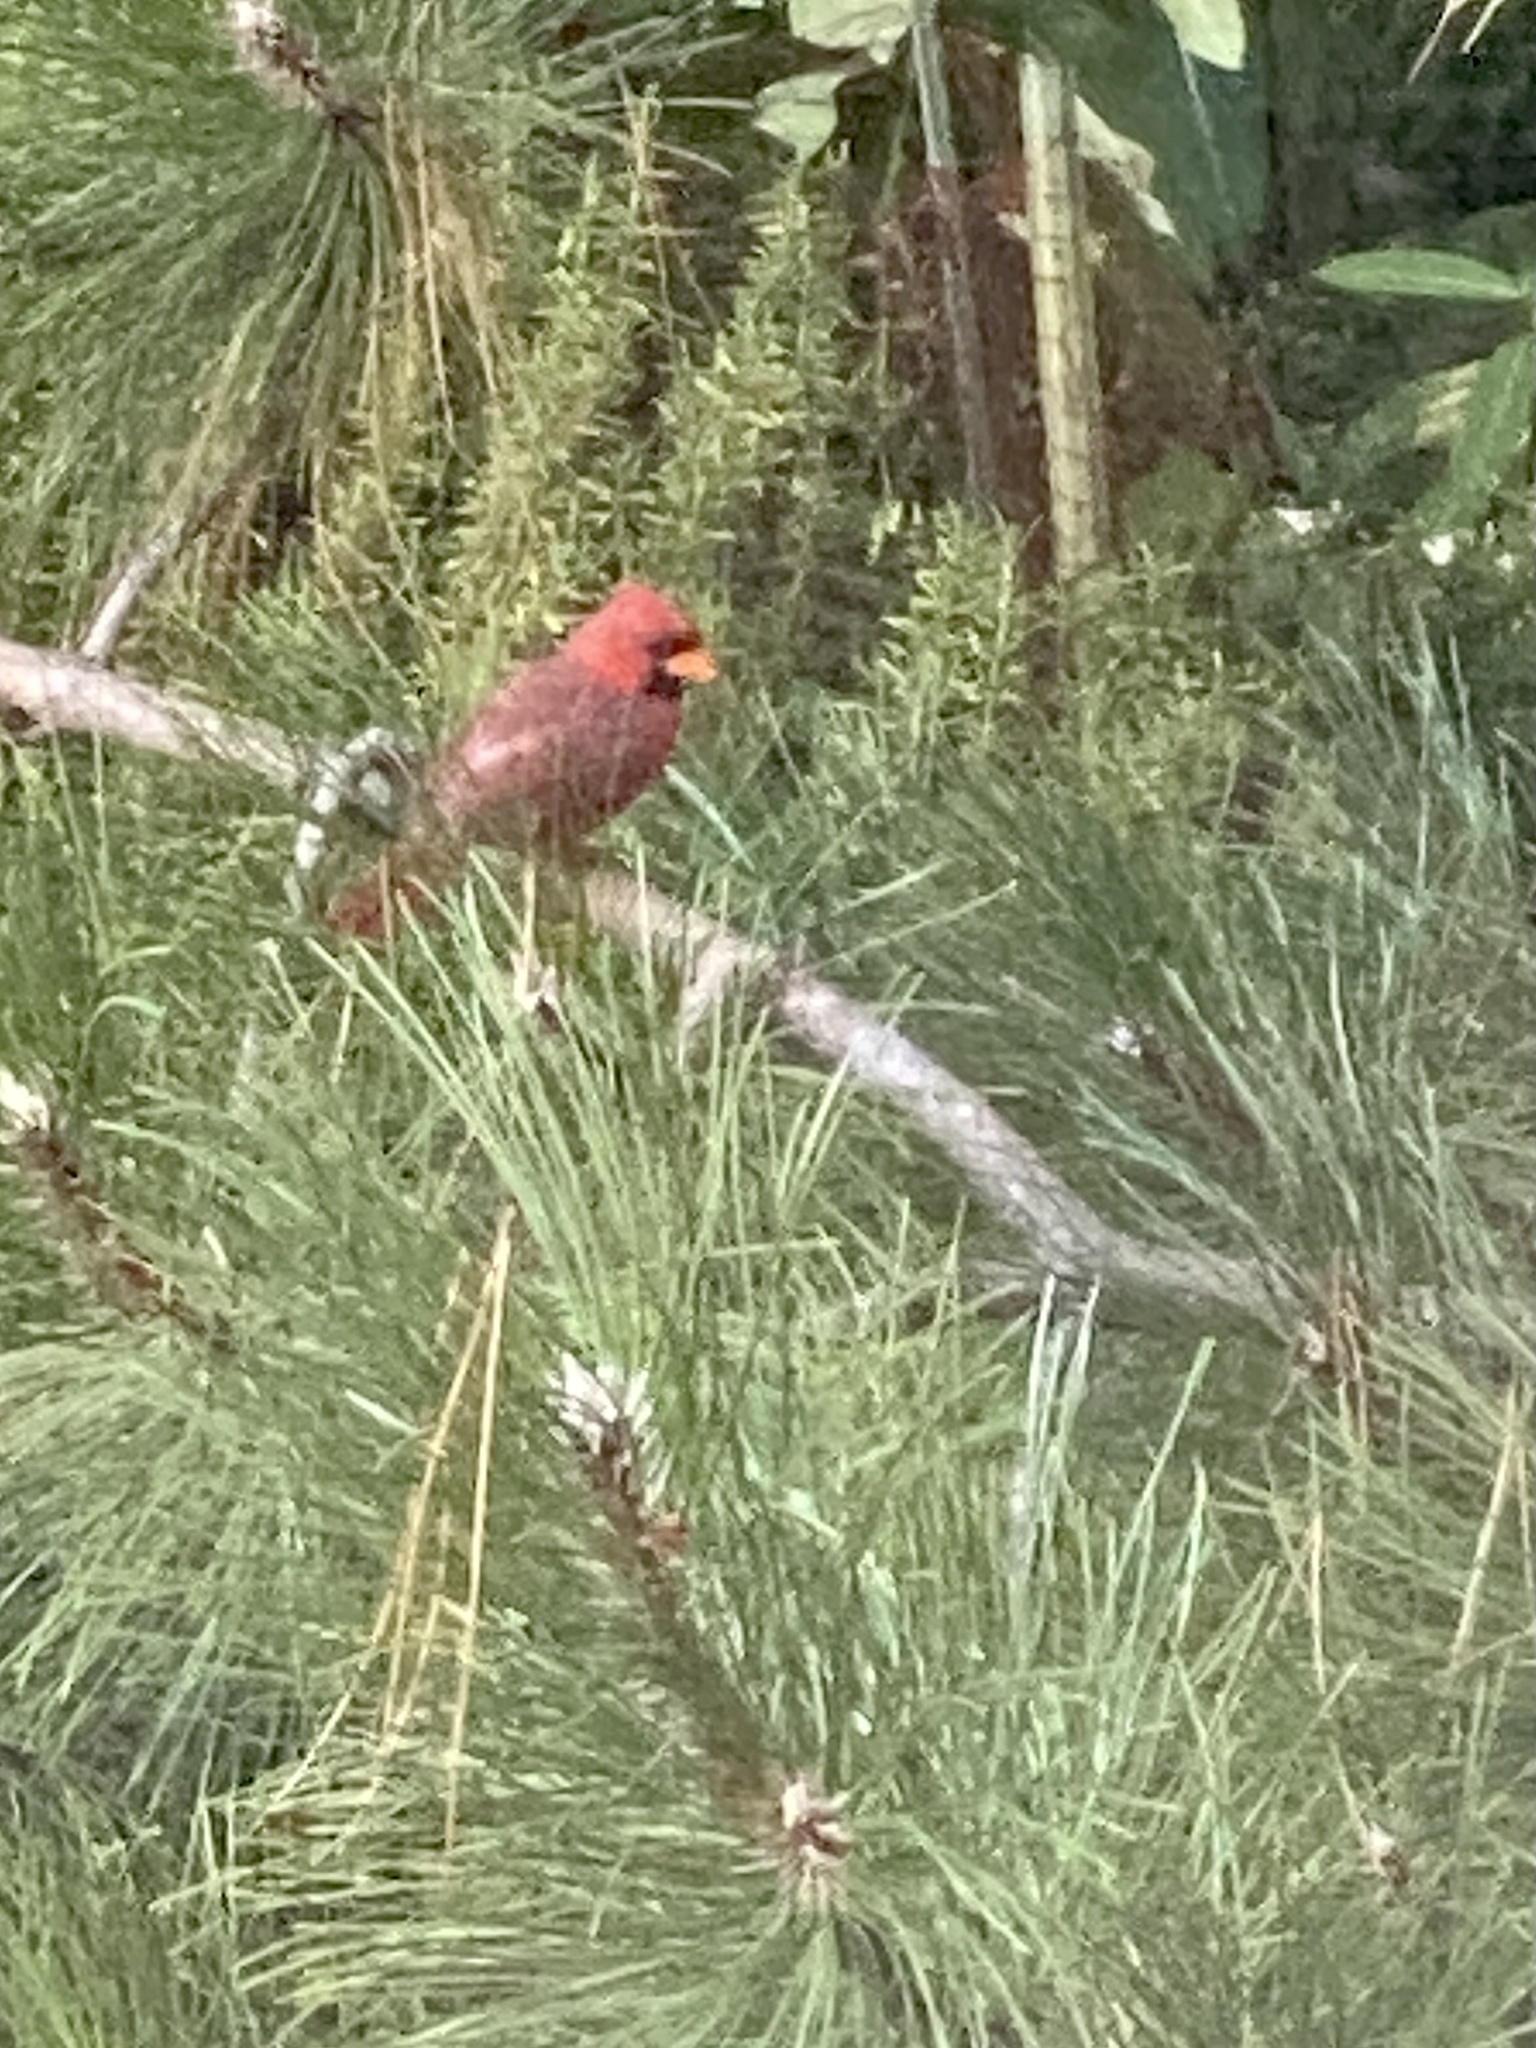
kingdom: Animalia
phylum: Chordata
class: Aves
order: Passeriformes
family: Cardinalidae
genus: Cardinalis
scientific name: Cardinalis cardinalis
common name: Northern cardinal
